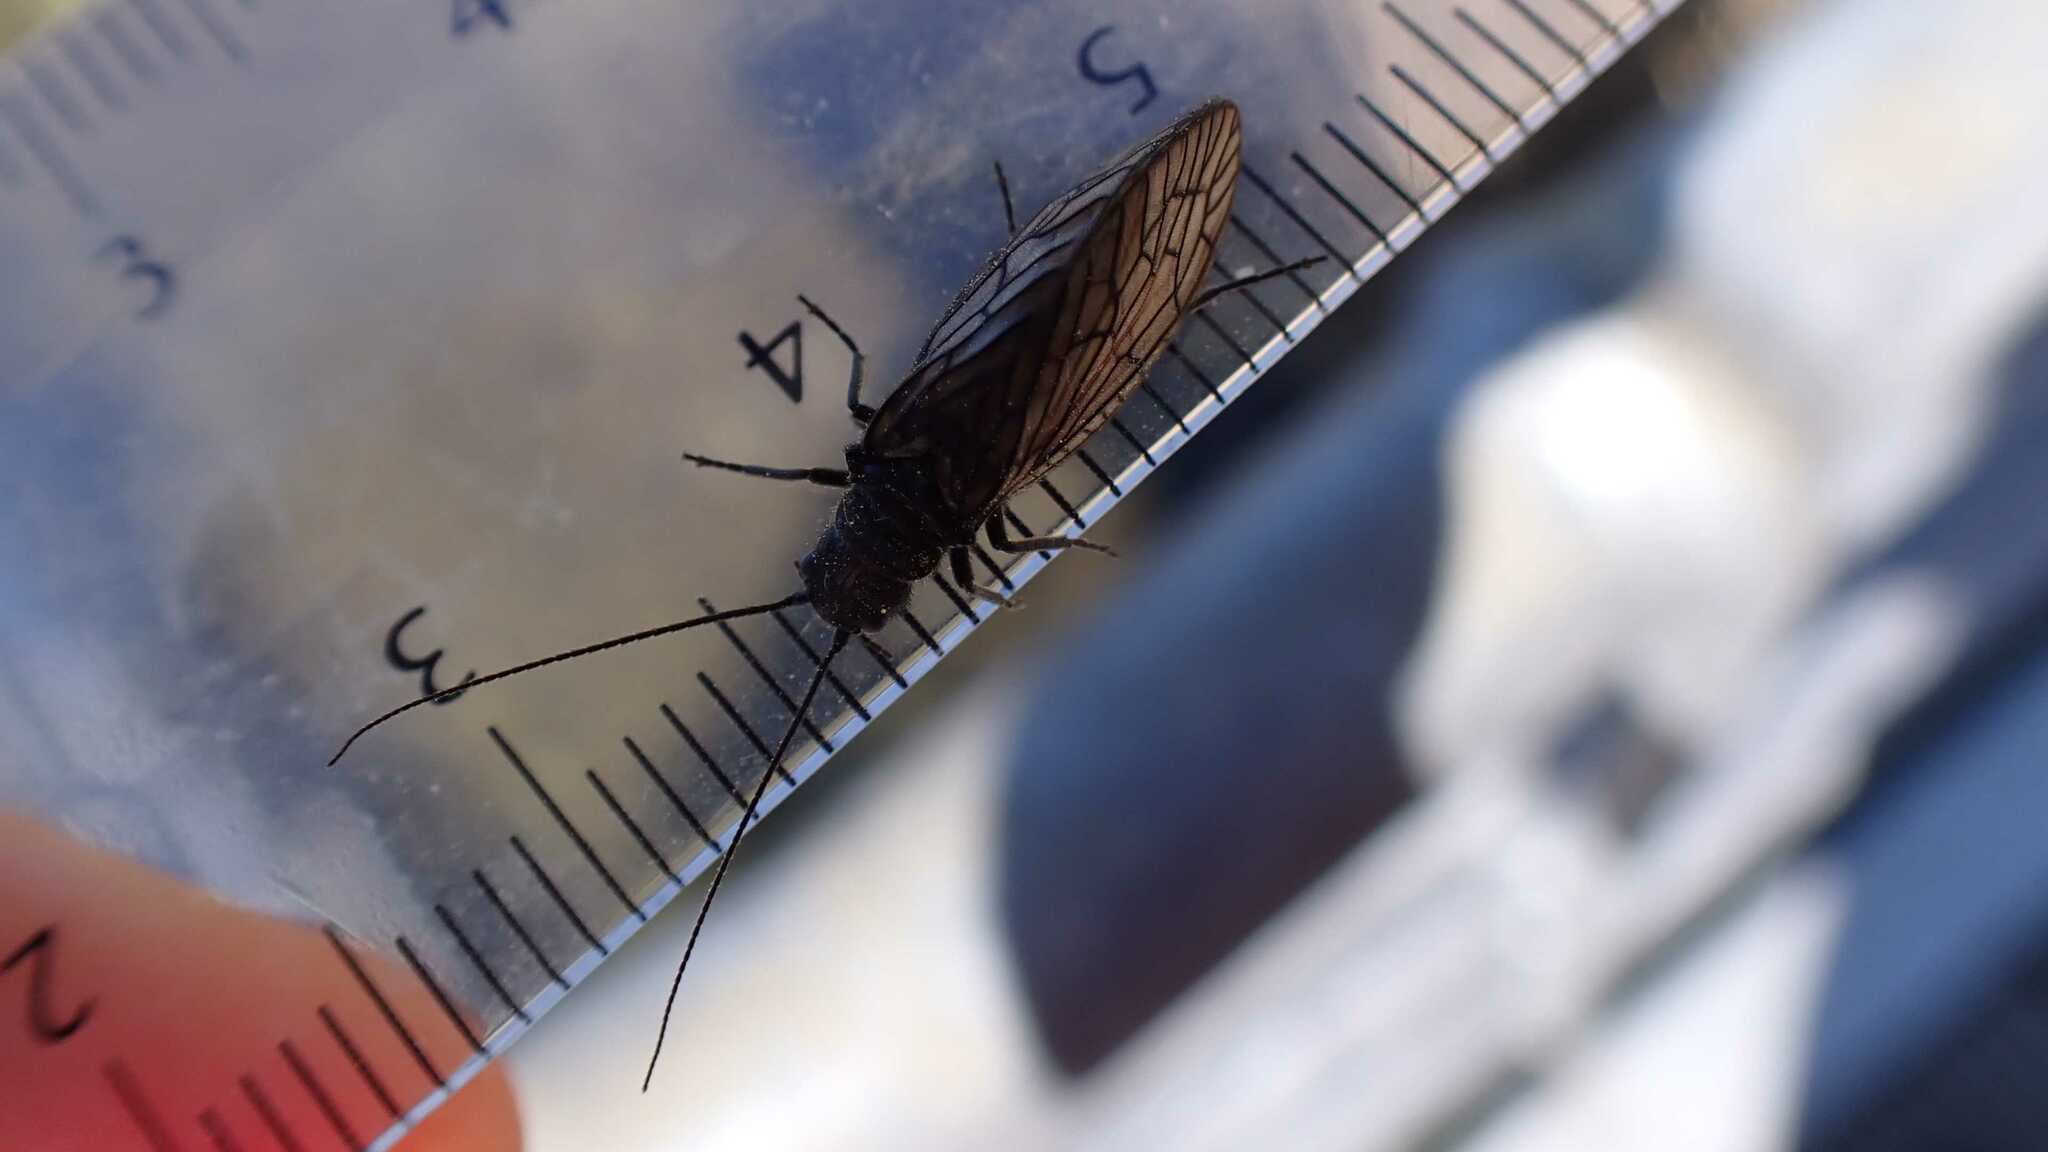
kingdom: Animalia
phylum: Arthropoda
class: Insecta
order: Megaloptera
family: Sialidae
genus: Sialis
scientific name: Sialis
